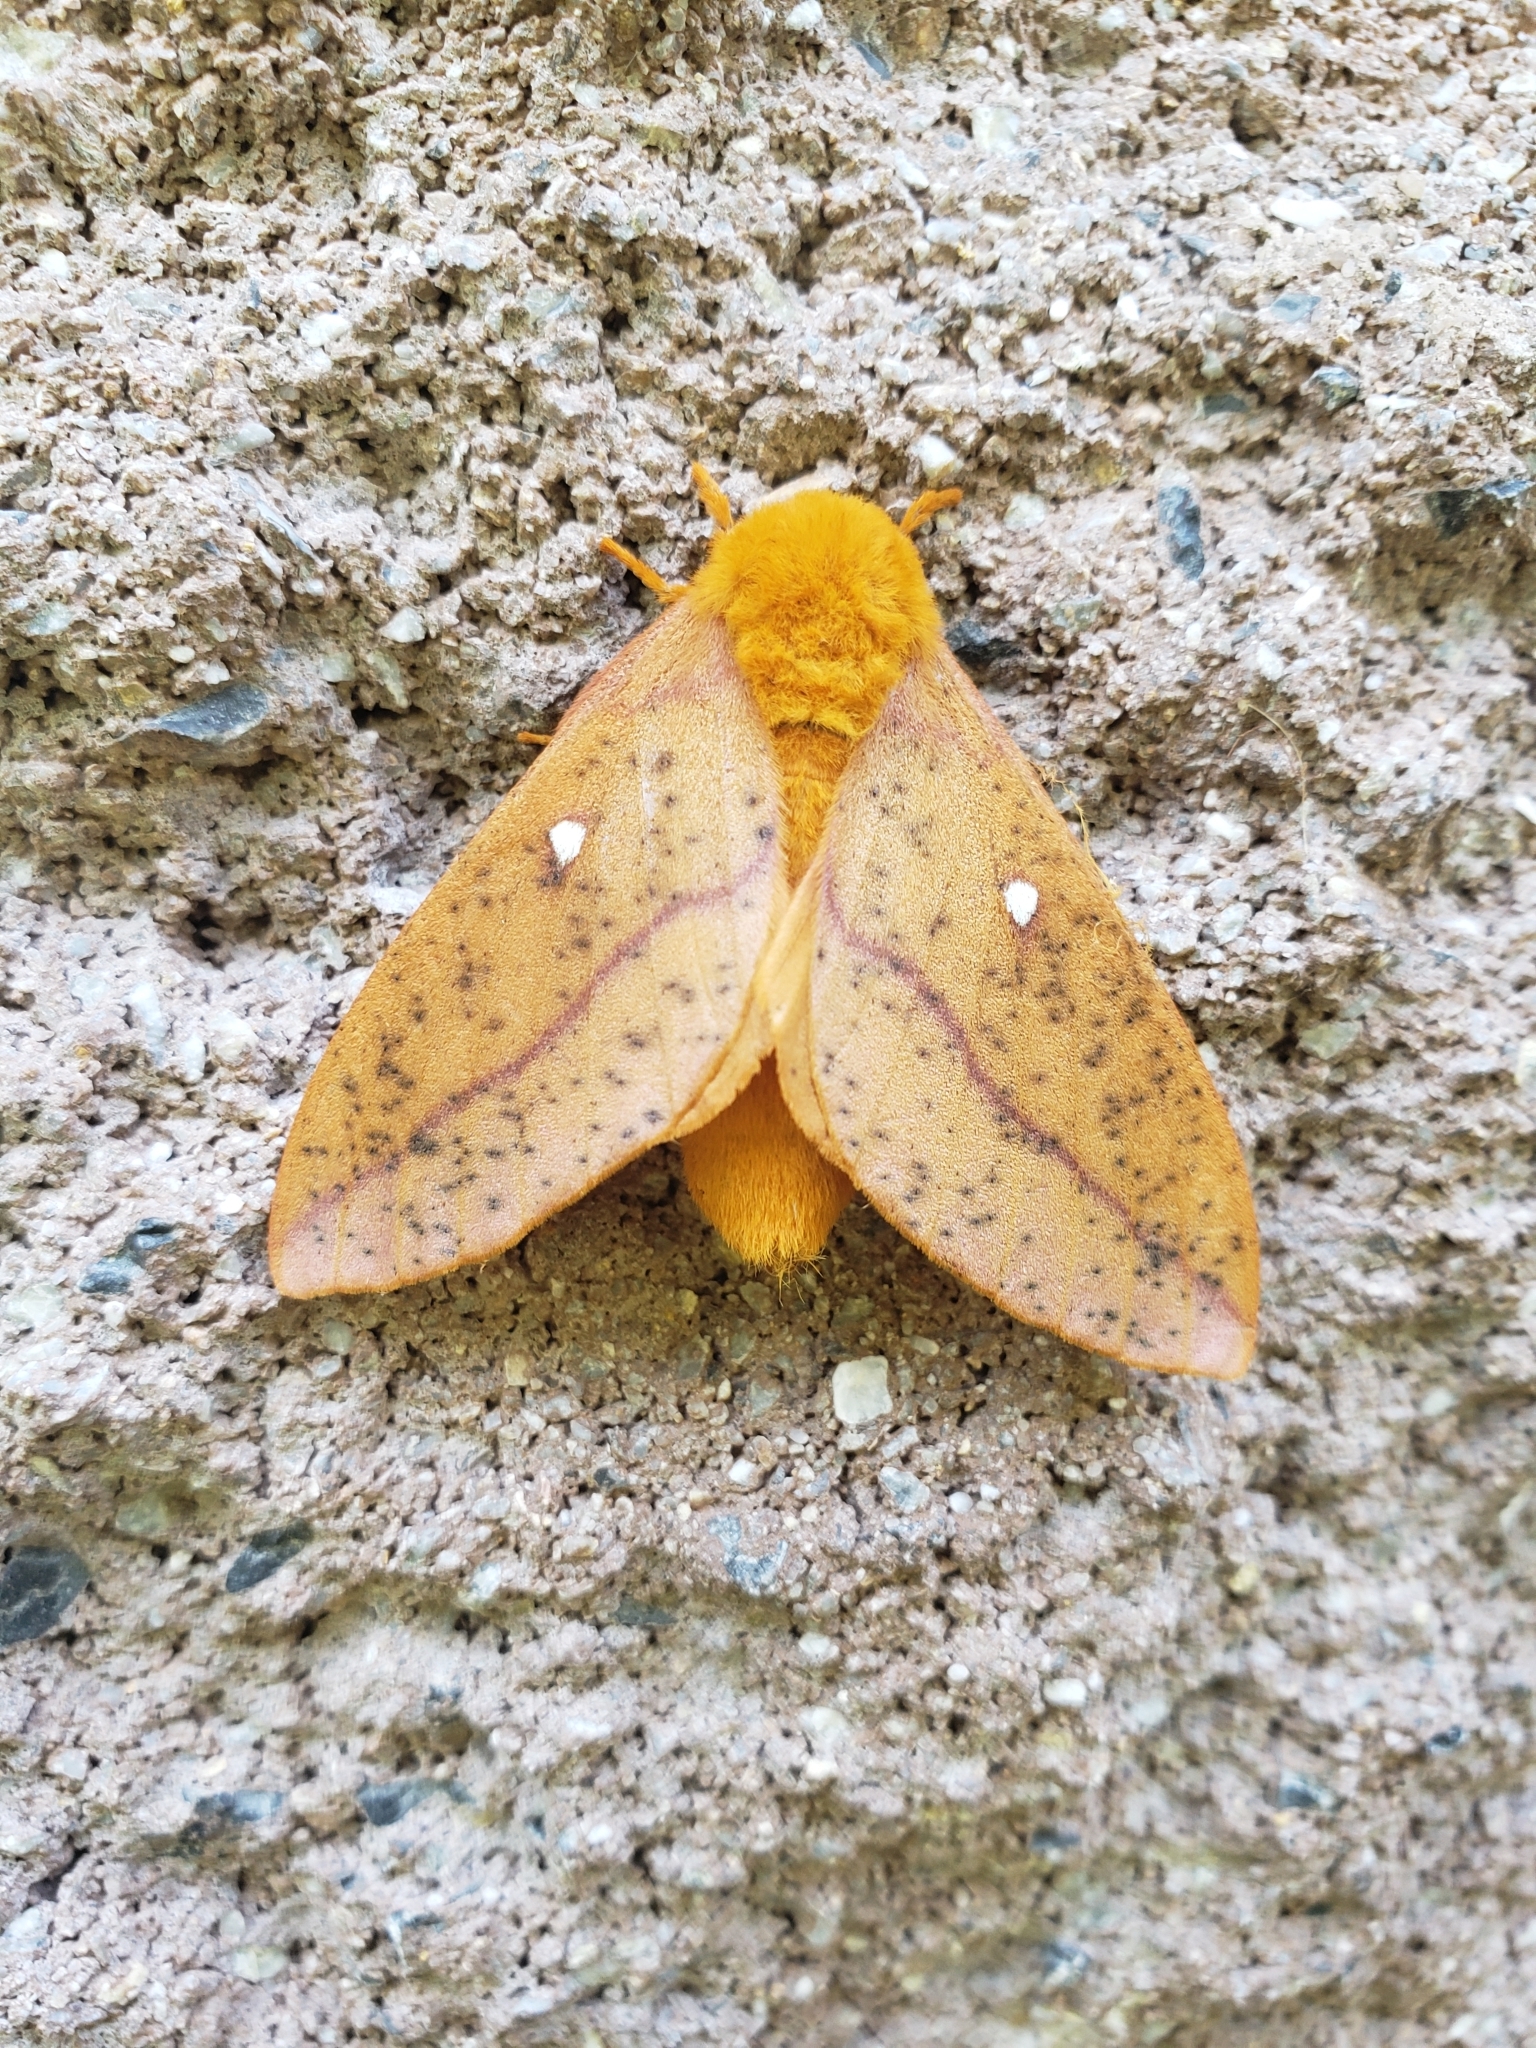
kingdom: Animalia
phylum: Arthropoda
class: Insecta
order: Lepidoptera
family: Saturniidae
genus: Anisota
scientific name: Anisota senatoria
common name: Orange-striped oakworm moth
